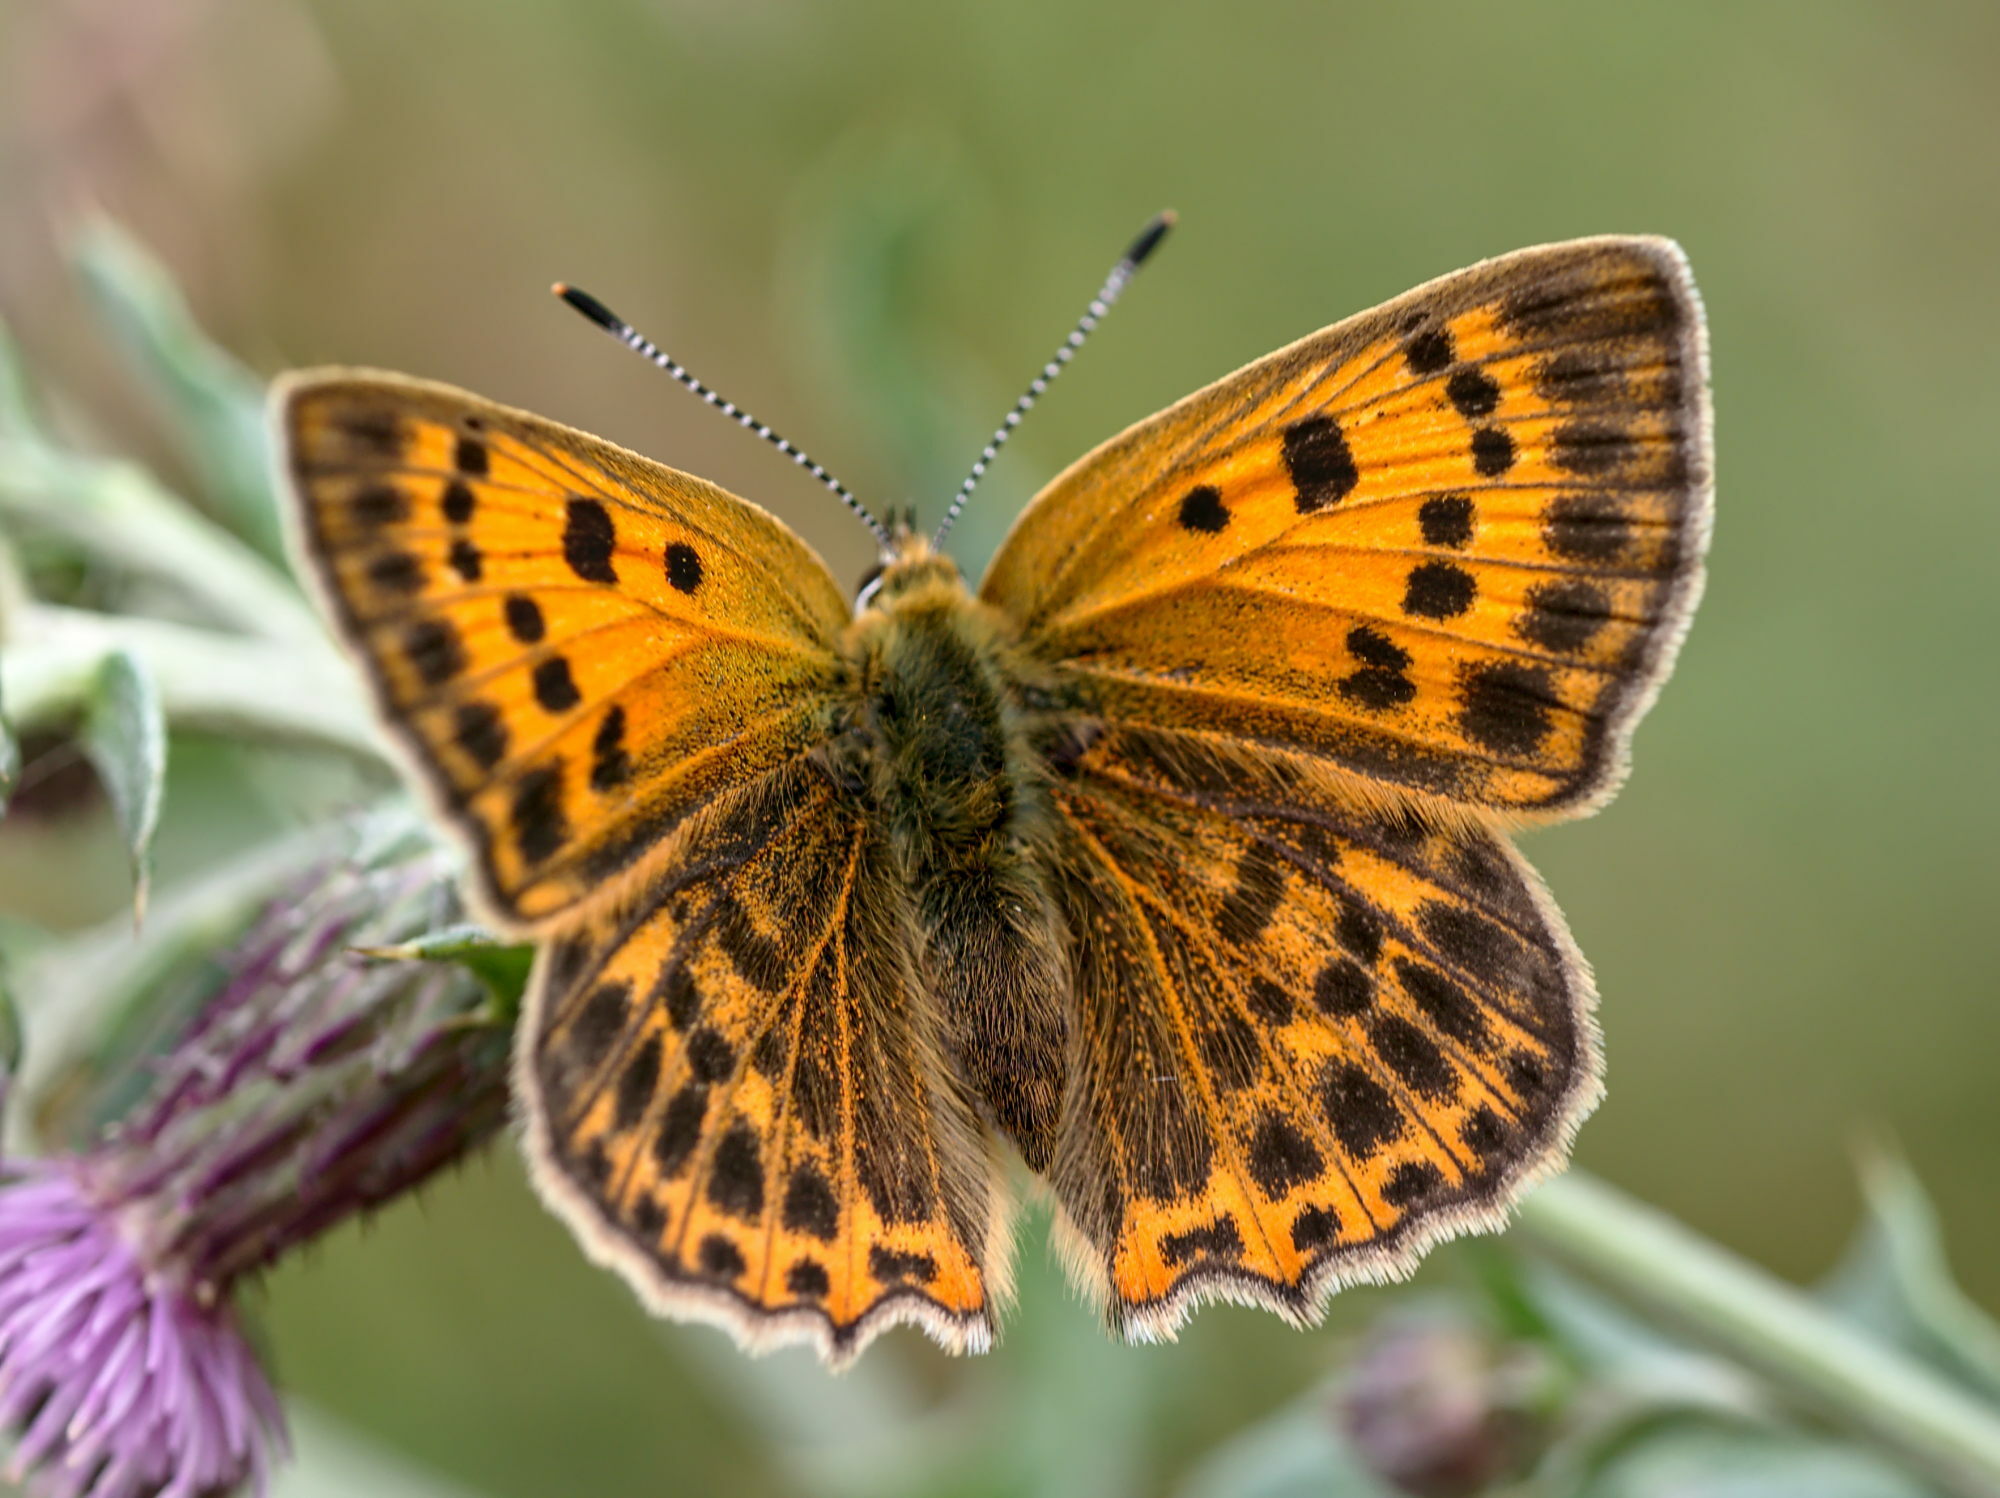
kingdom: Animalia
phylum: Arthropoda
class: Insecta
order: Lepidoptera
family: Lycaenidae
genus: Lycaena
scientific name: Lycaena virgaureae
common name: Scarce copper
